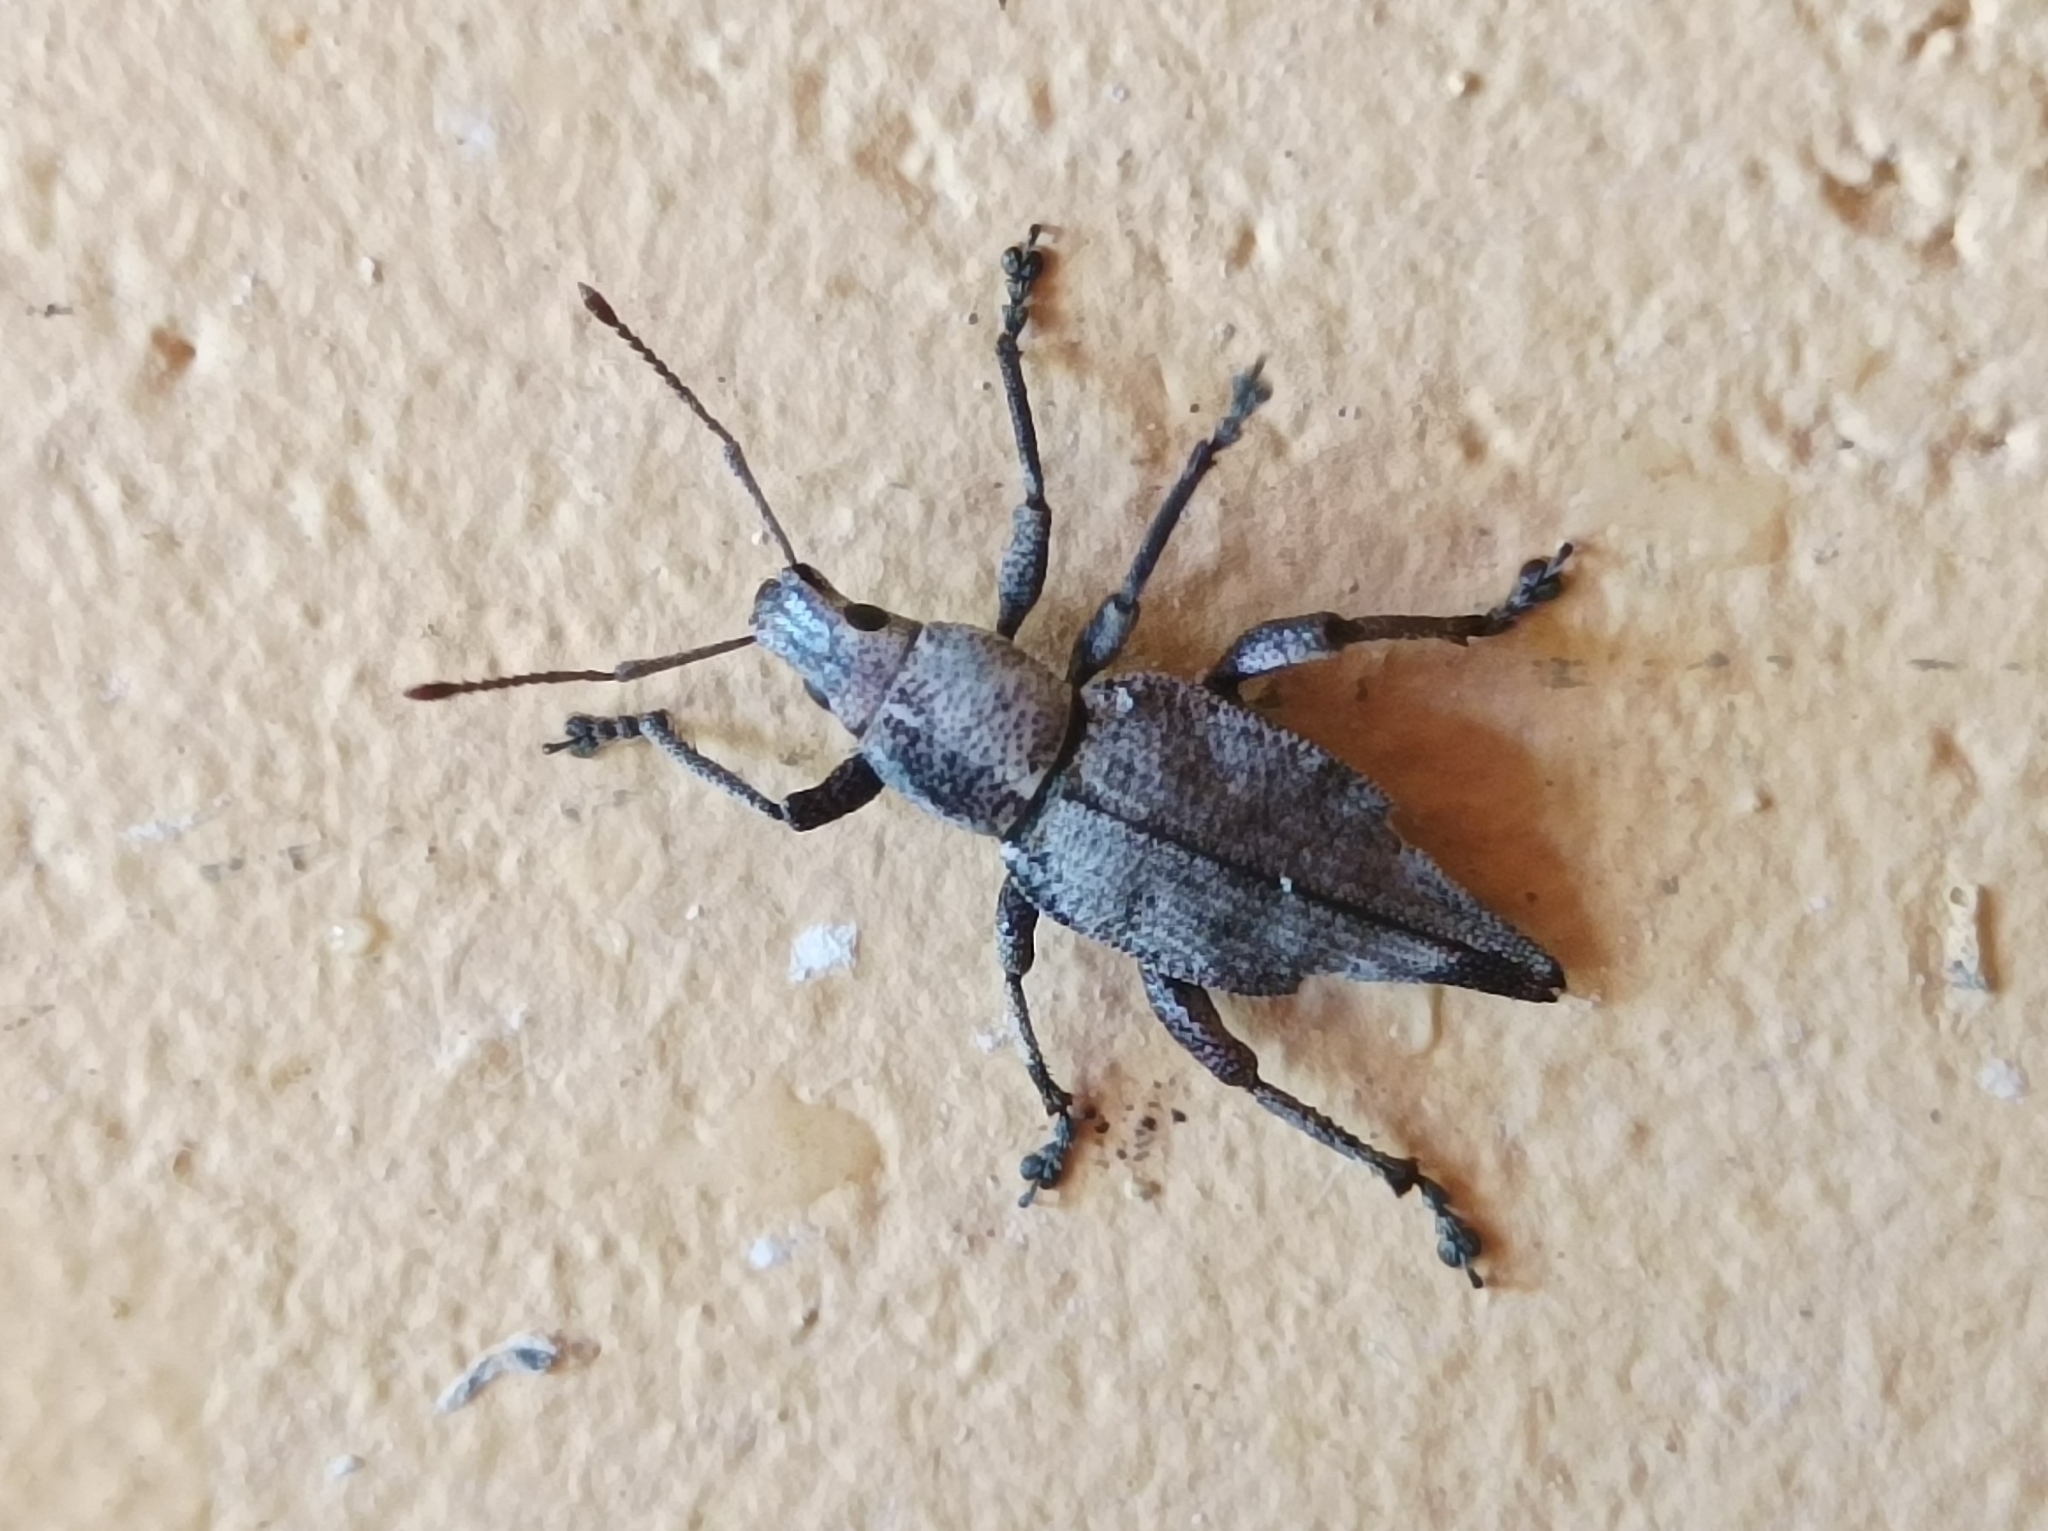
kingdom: Animalia
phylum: Arthropoda
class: Insecta
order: Coleoptera
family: Curculionidae
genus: Elytrurus
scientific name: Elytrurus caudatus
